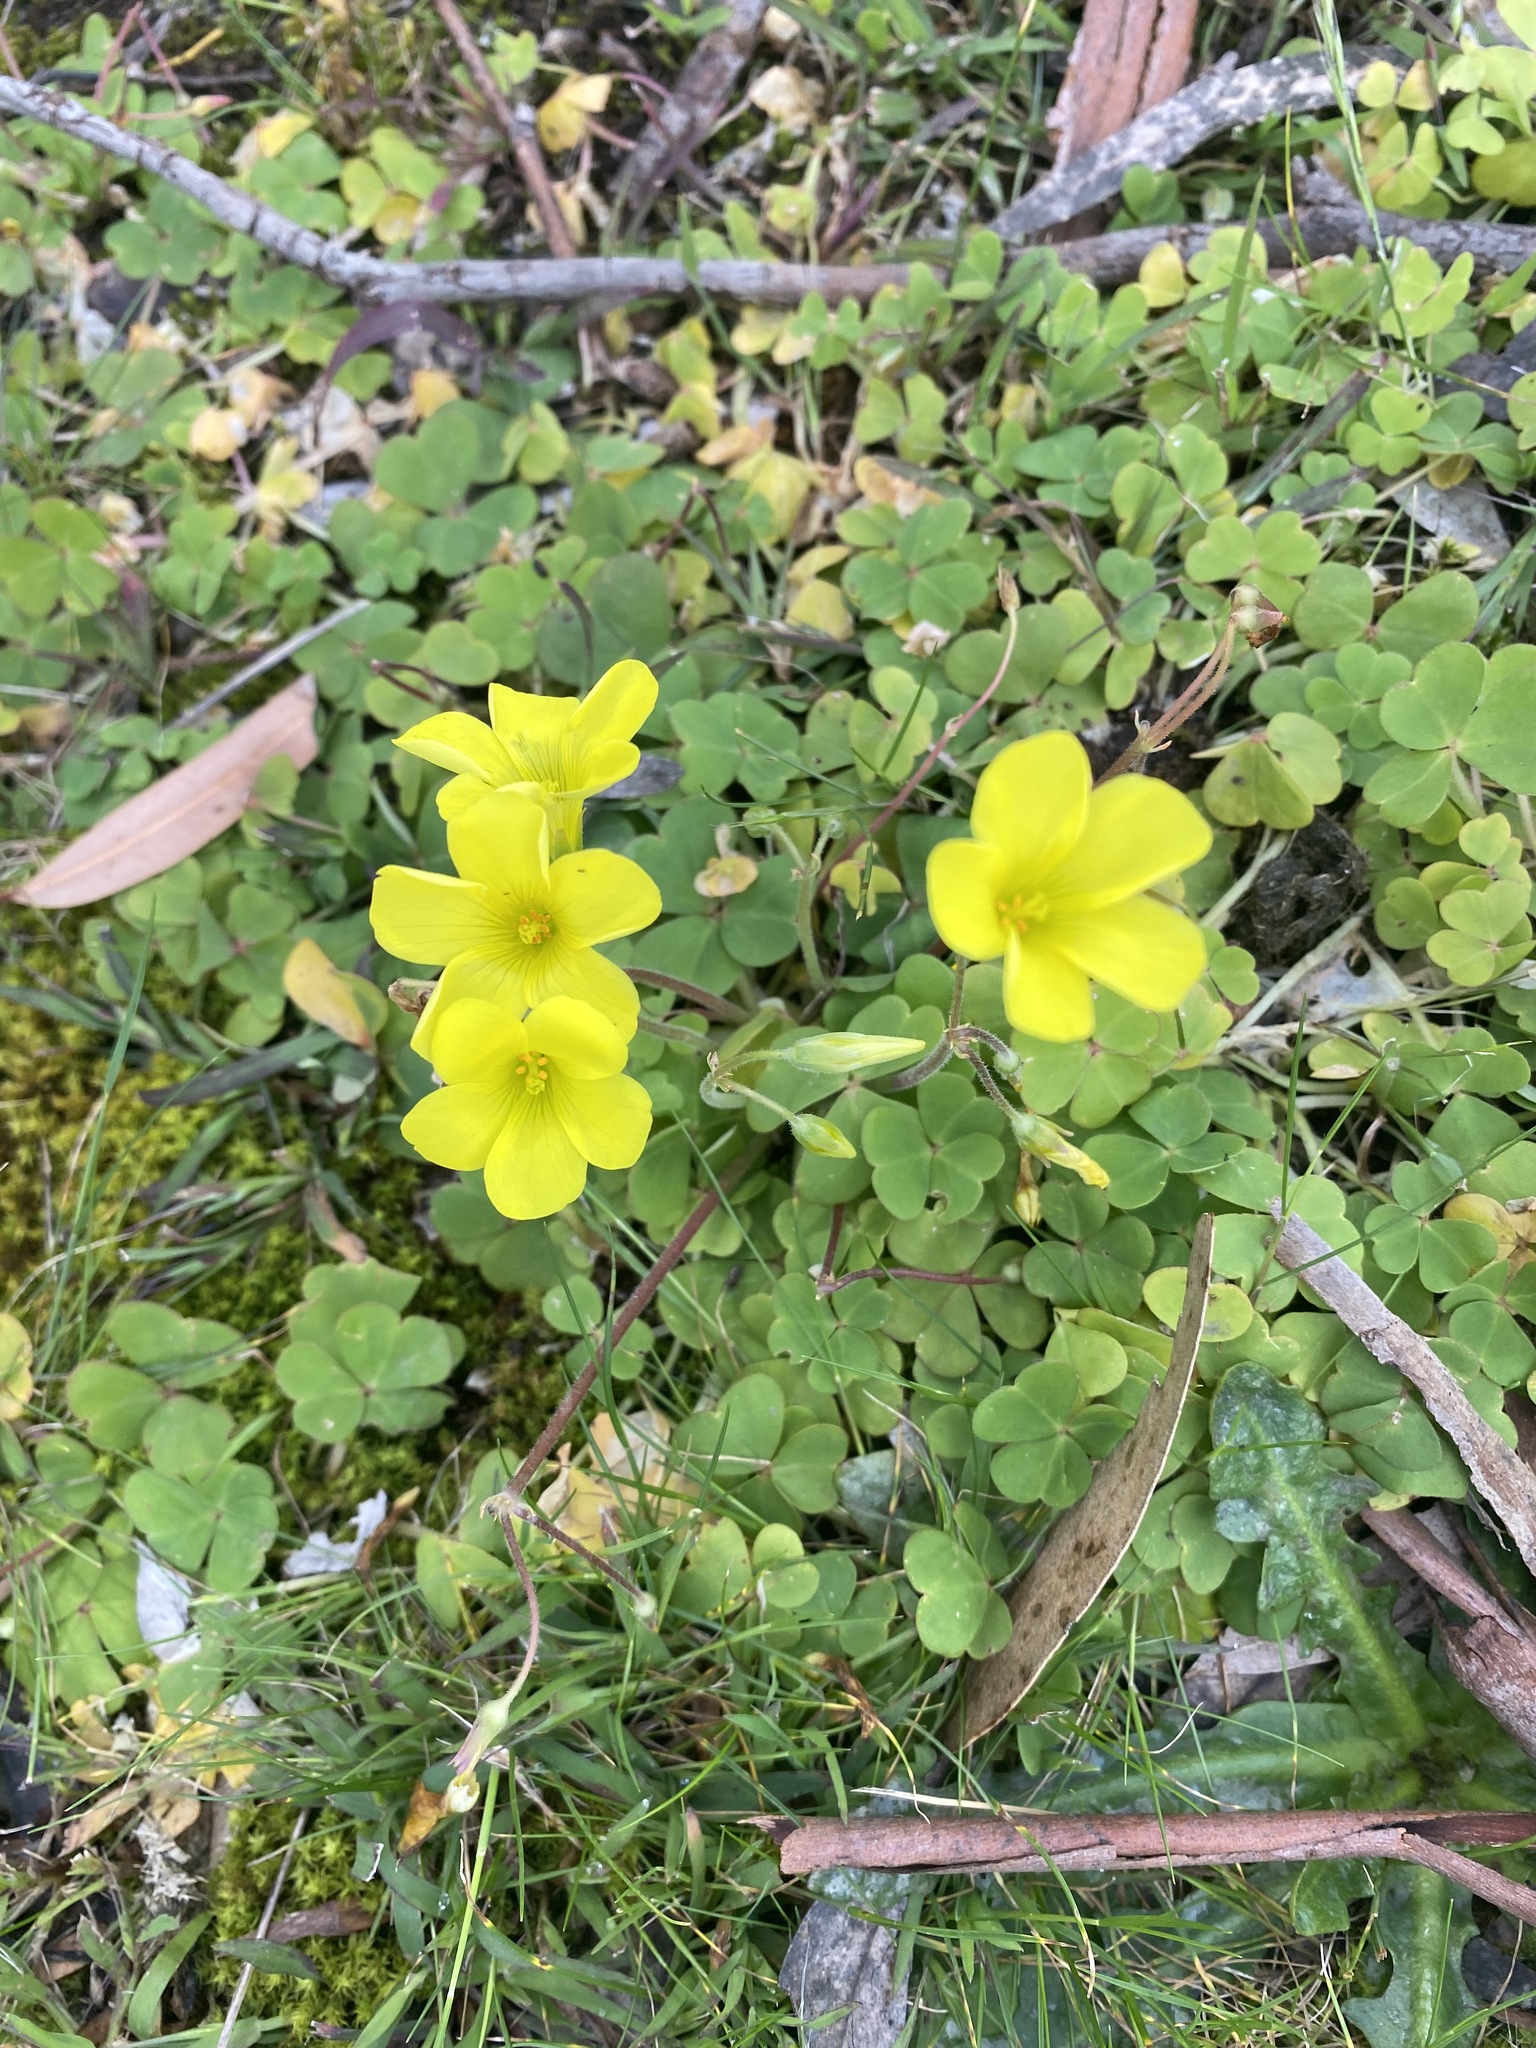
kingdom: Plantae
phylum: Tracheophyta
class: Magnoliopsida
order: Oxalidales
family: Oxalidaceae
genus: Oxalis
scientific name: Oxalis pes-caprae
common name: Bermuda-buttercup
